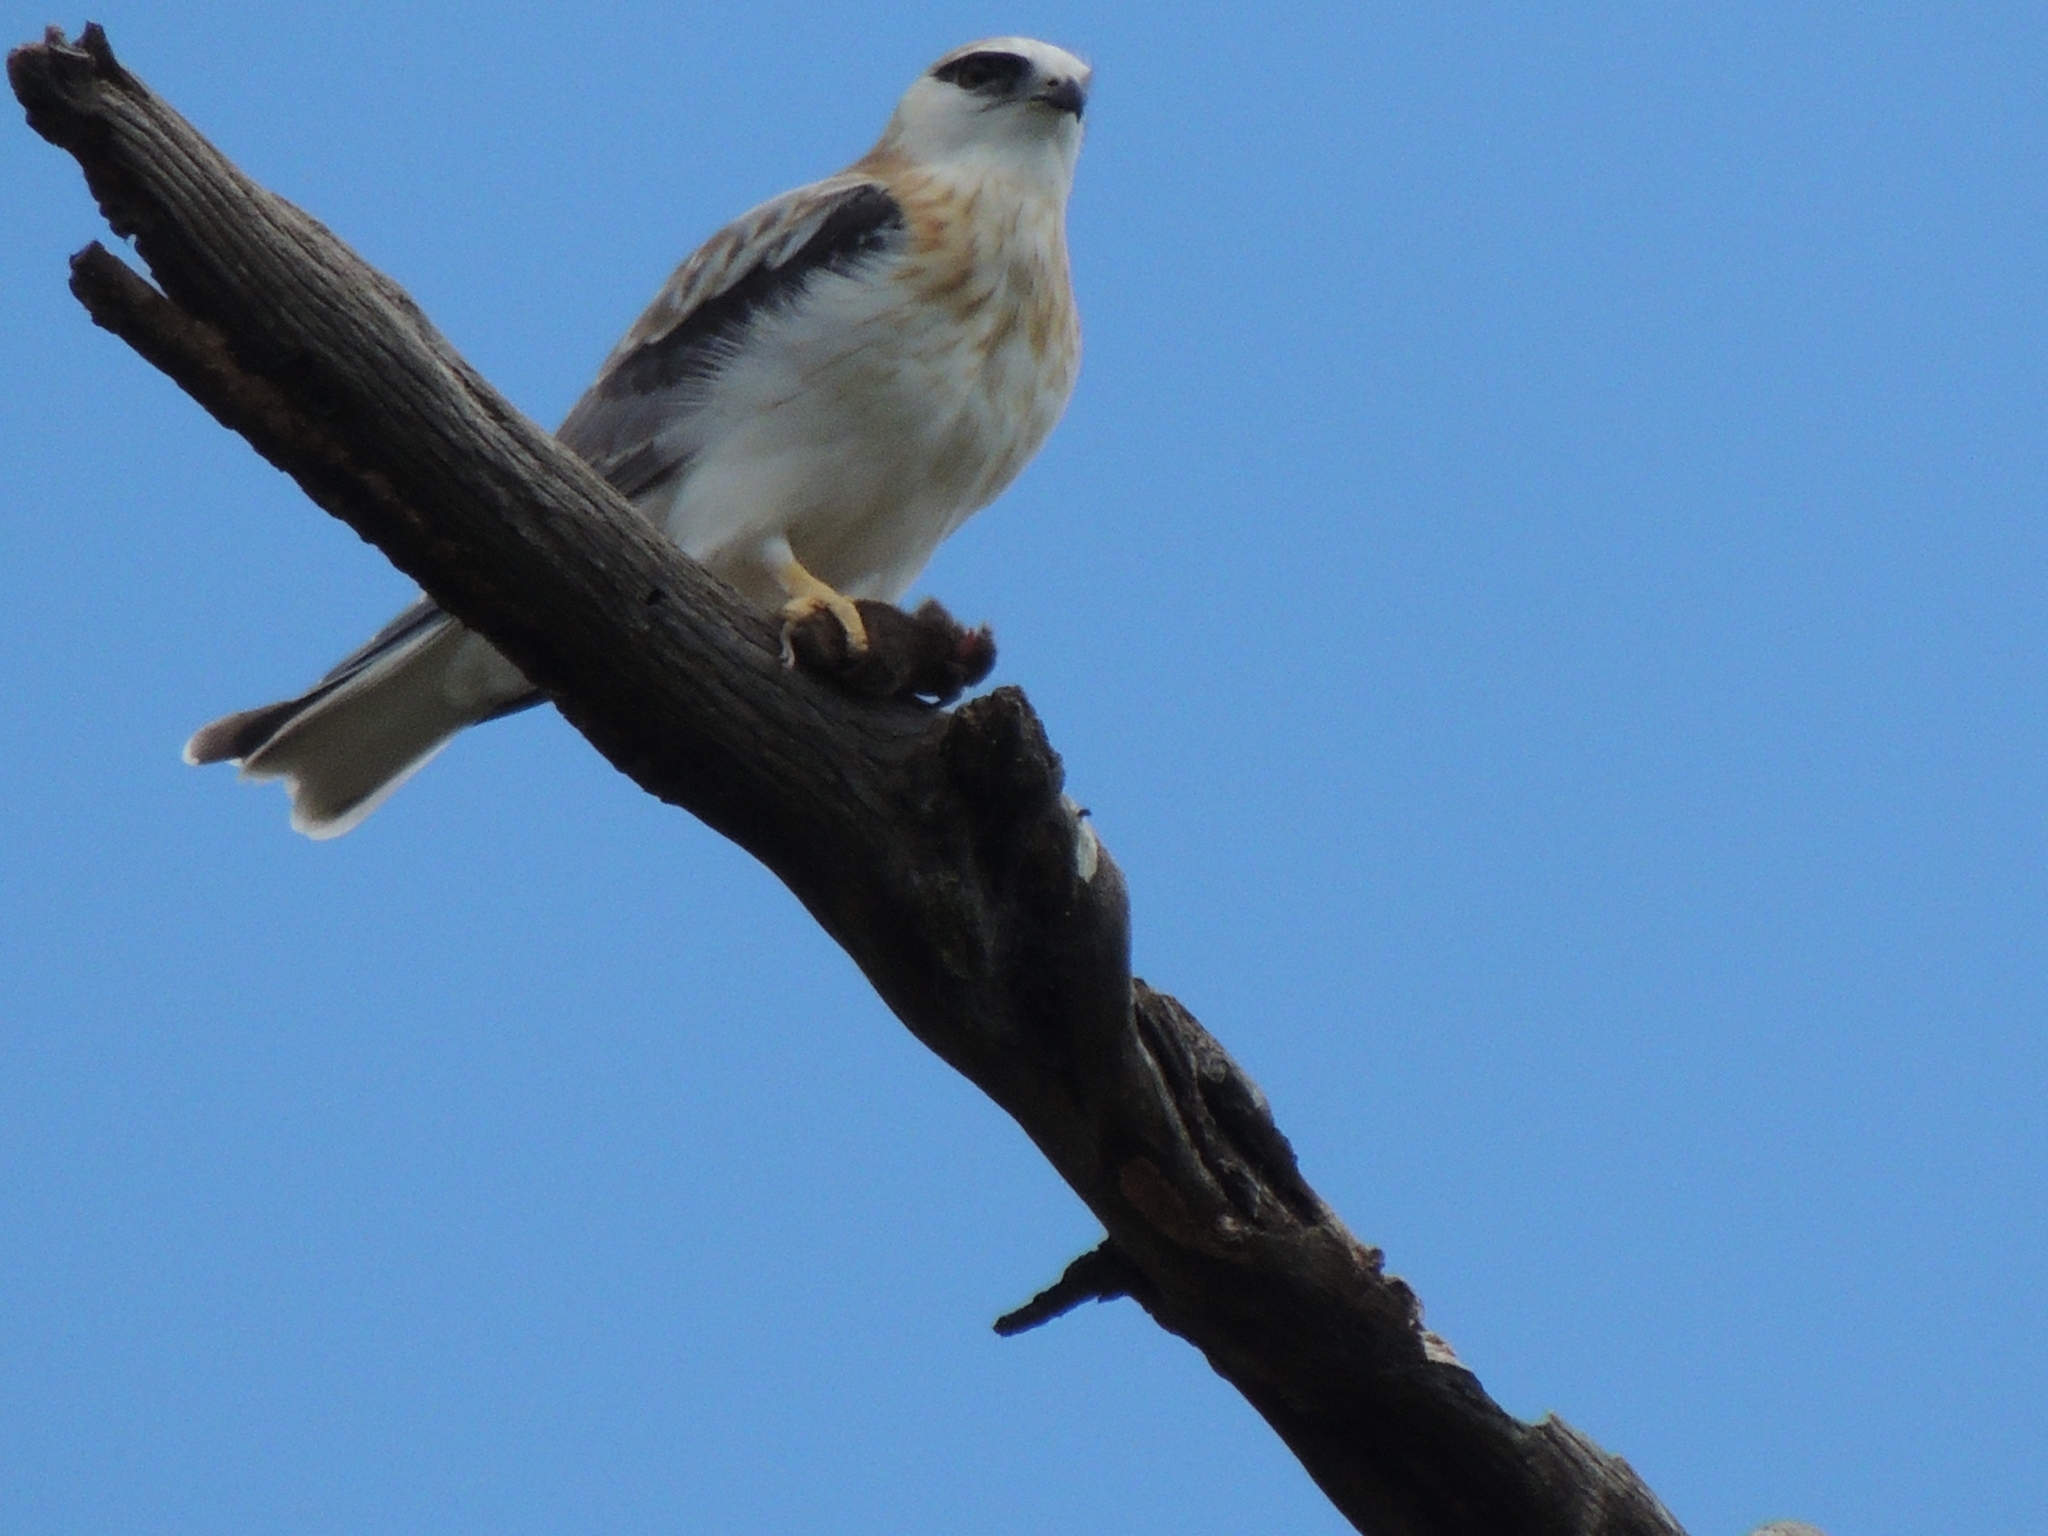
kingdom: Animalia
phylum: Chordata
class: Aves
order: Accipitriformes
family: Accipitridae
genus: Elanus
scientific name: Elanus axillaris
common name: Black-shouldered kite
